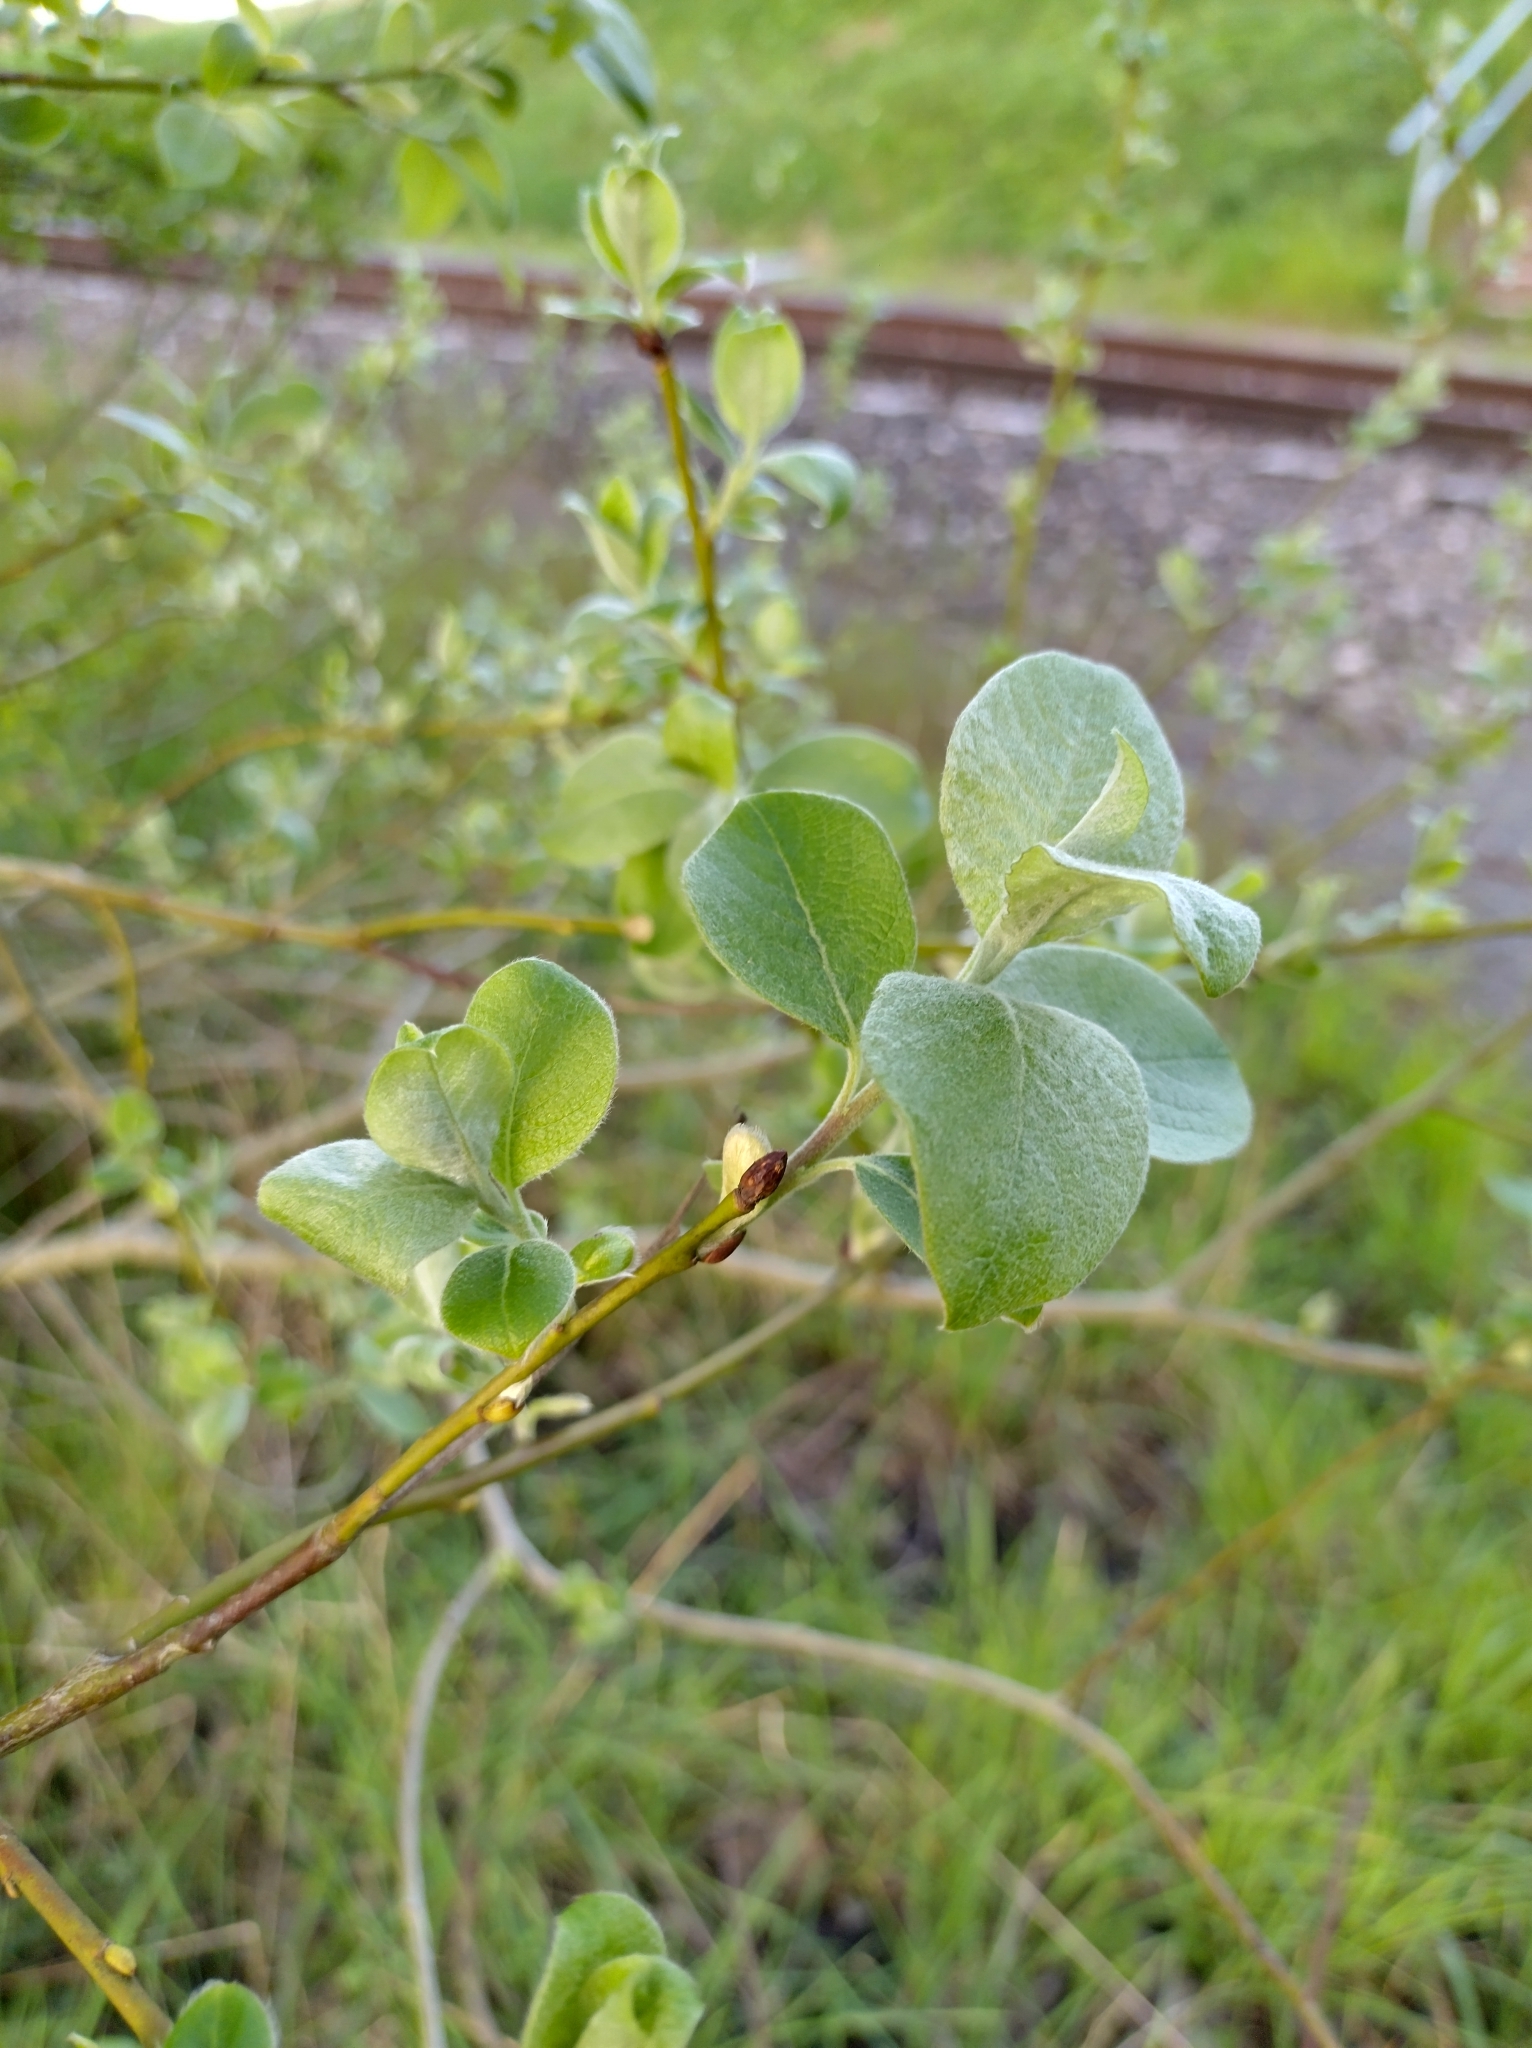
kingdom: Plantae
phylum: Tracheophyta
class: Magnoliopsida
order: Malpighiales
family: Salicaceae
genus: Salix
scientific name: Salix caprea
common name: Goat willow
